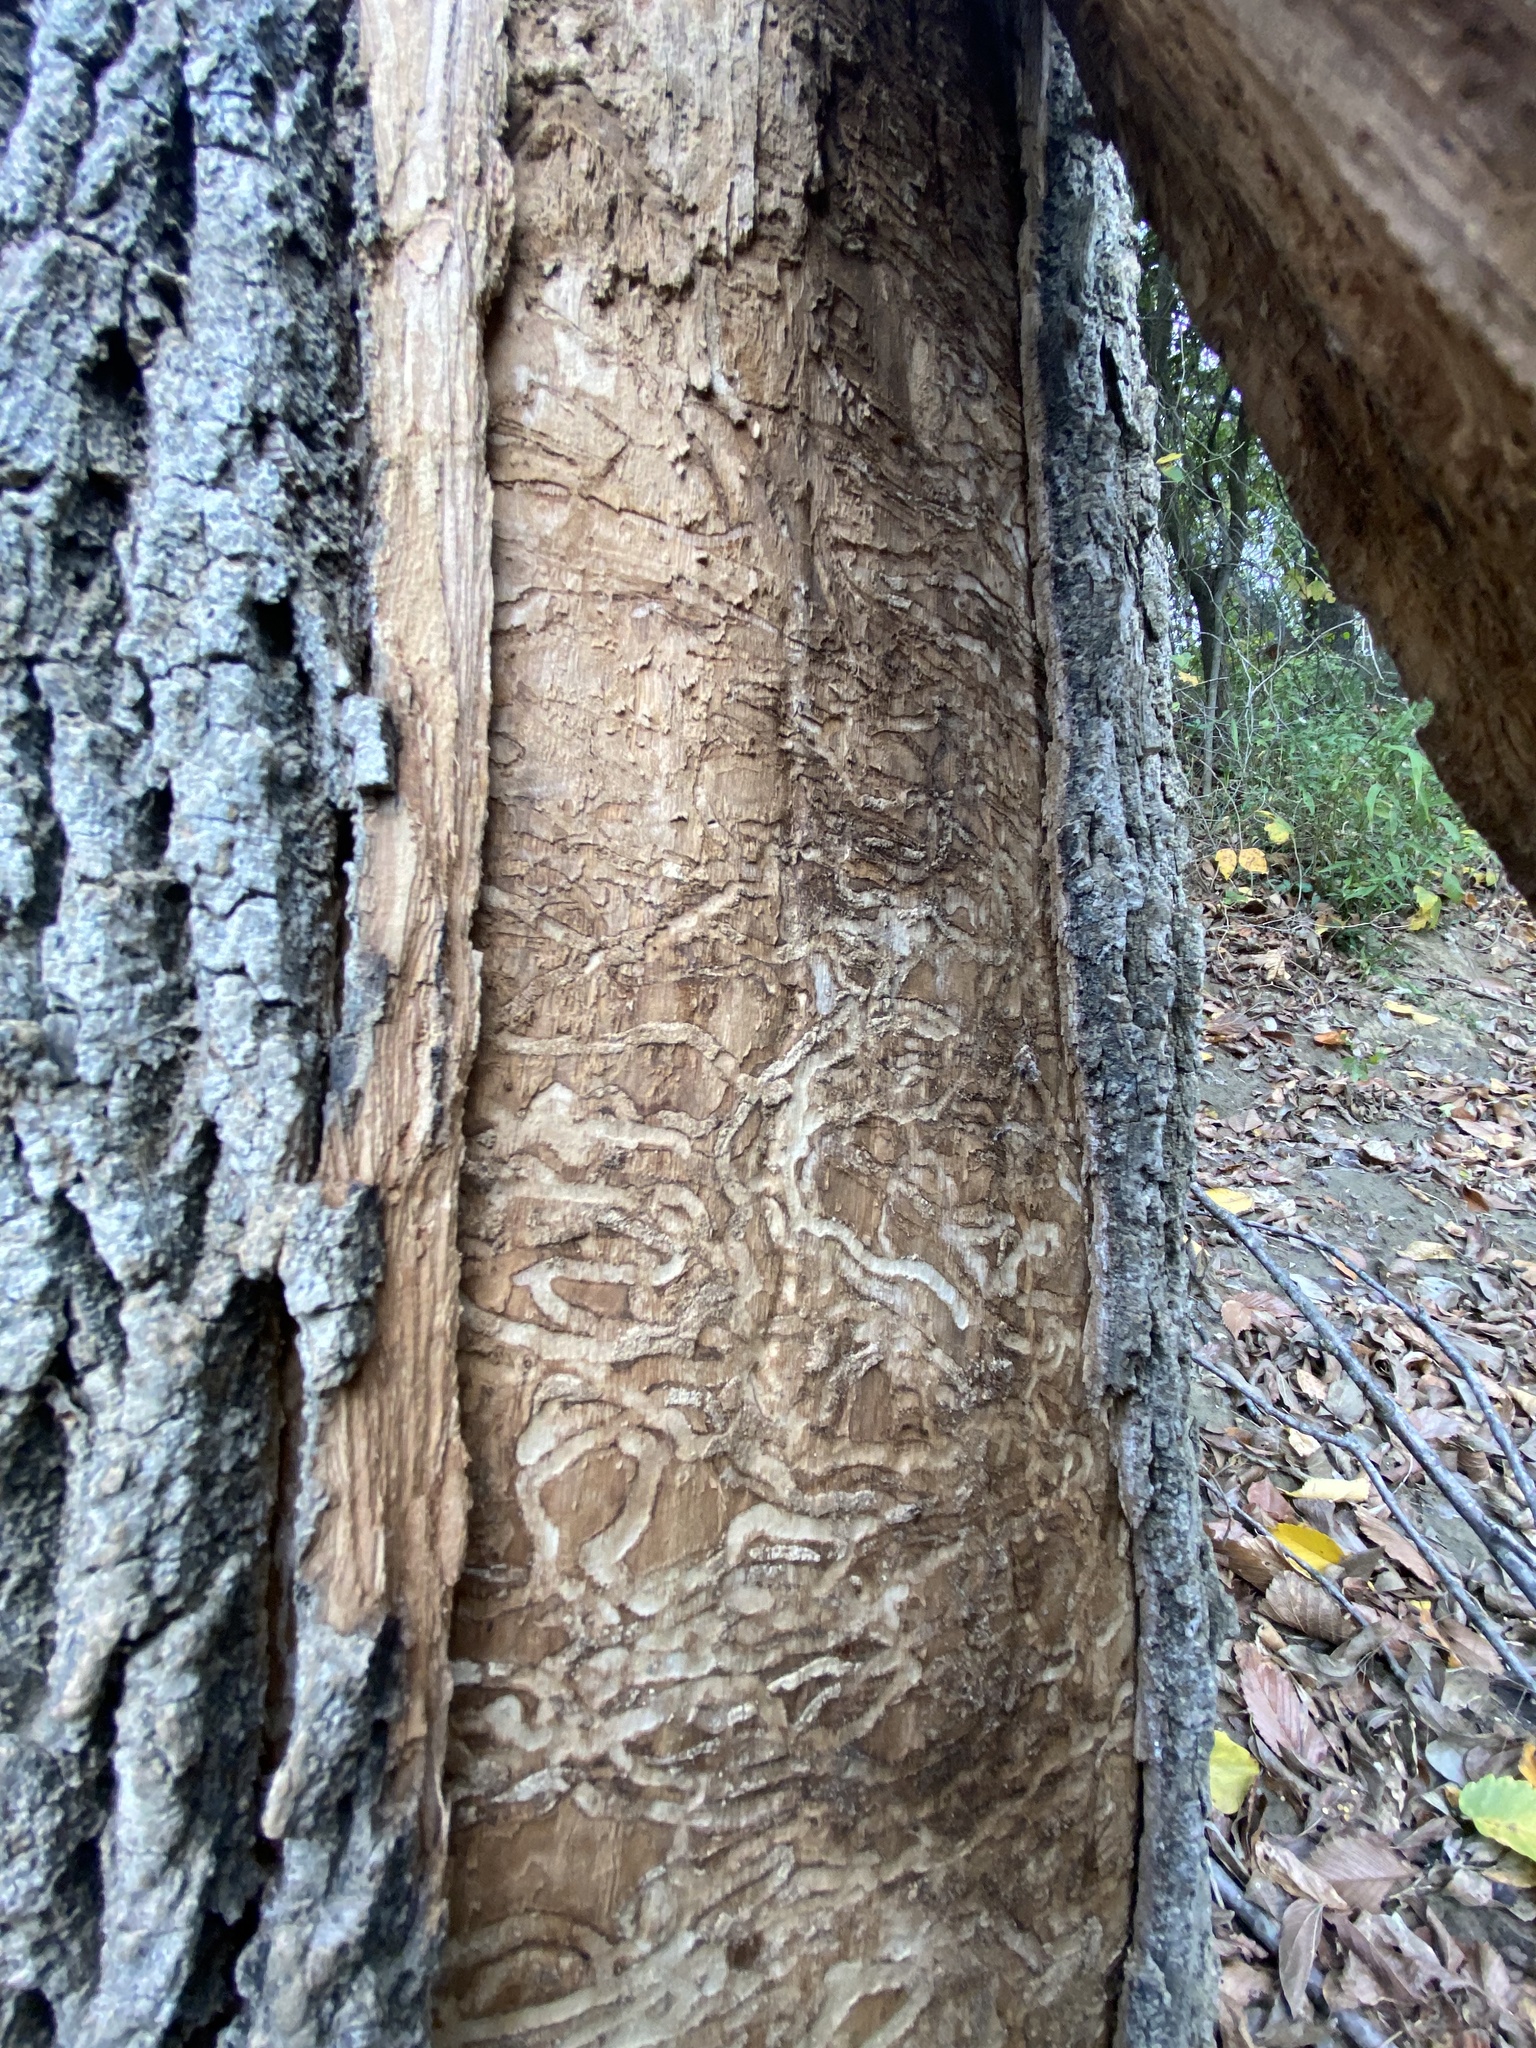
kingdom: Animalia
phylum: Arthropoda
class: Insecta
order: Coleoptera
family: Buprestidae
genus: Agrilus
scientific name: Agrilus planipennis
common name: Emerald ash borer
